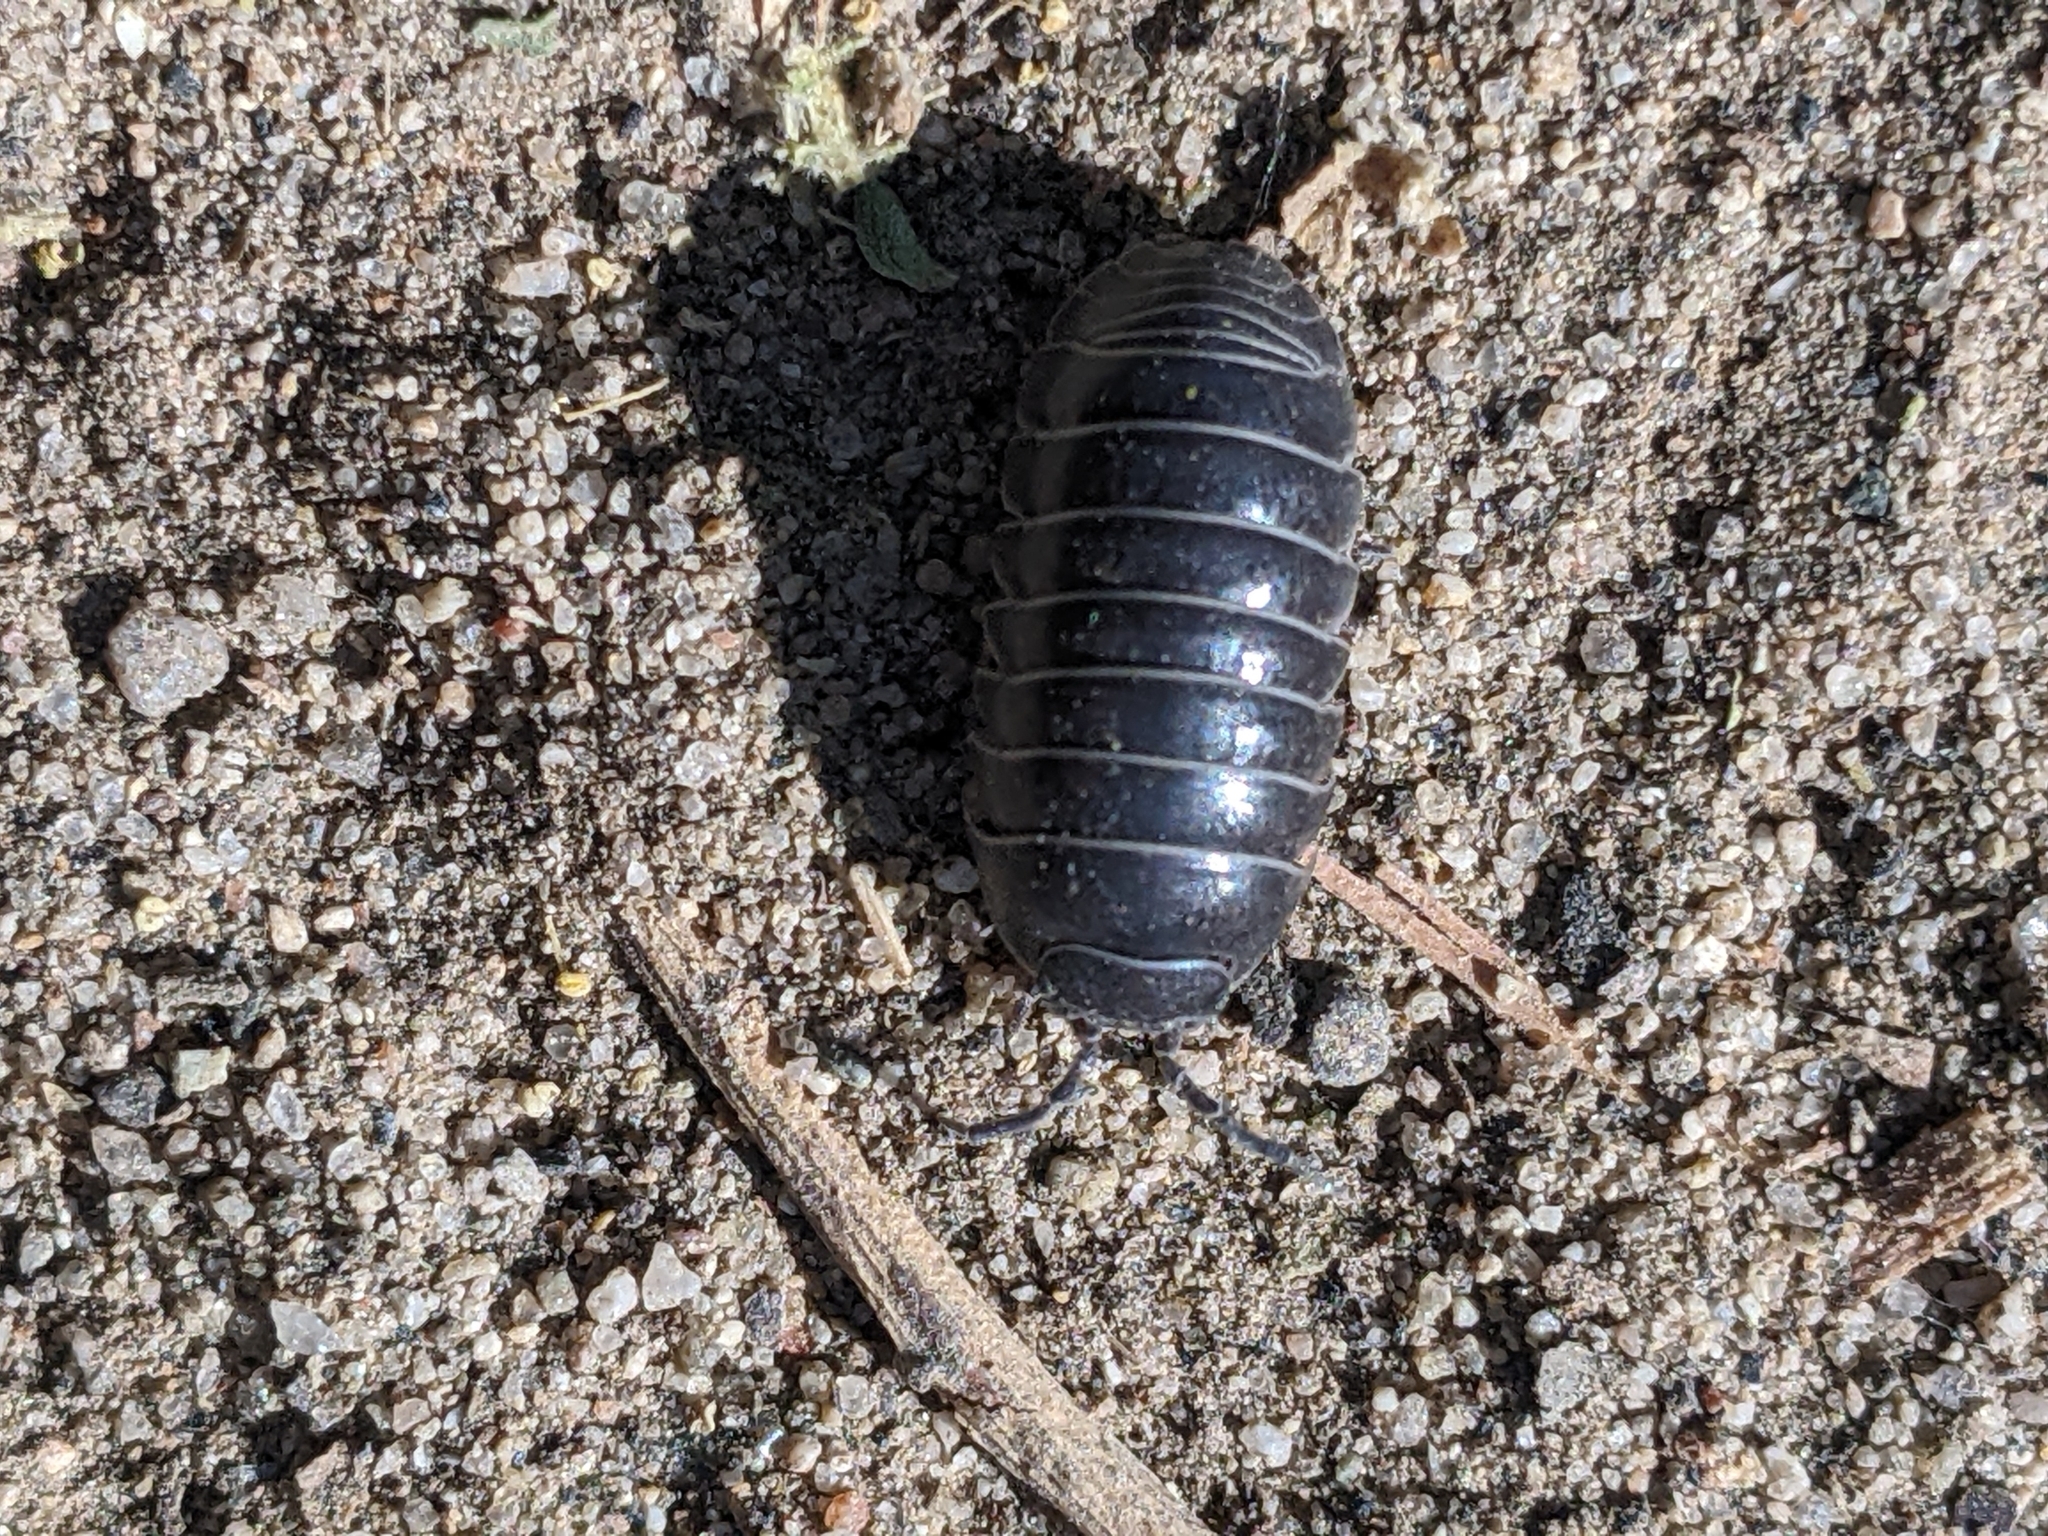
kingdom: Animalia
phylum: Arthropoda
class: Malacostraca
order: Isopoda
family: Armadillidiidae
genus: Armadillidium
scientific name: Armadillidium vulgare
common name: Common pill woodlouse
